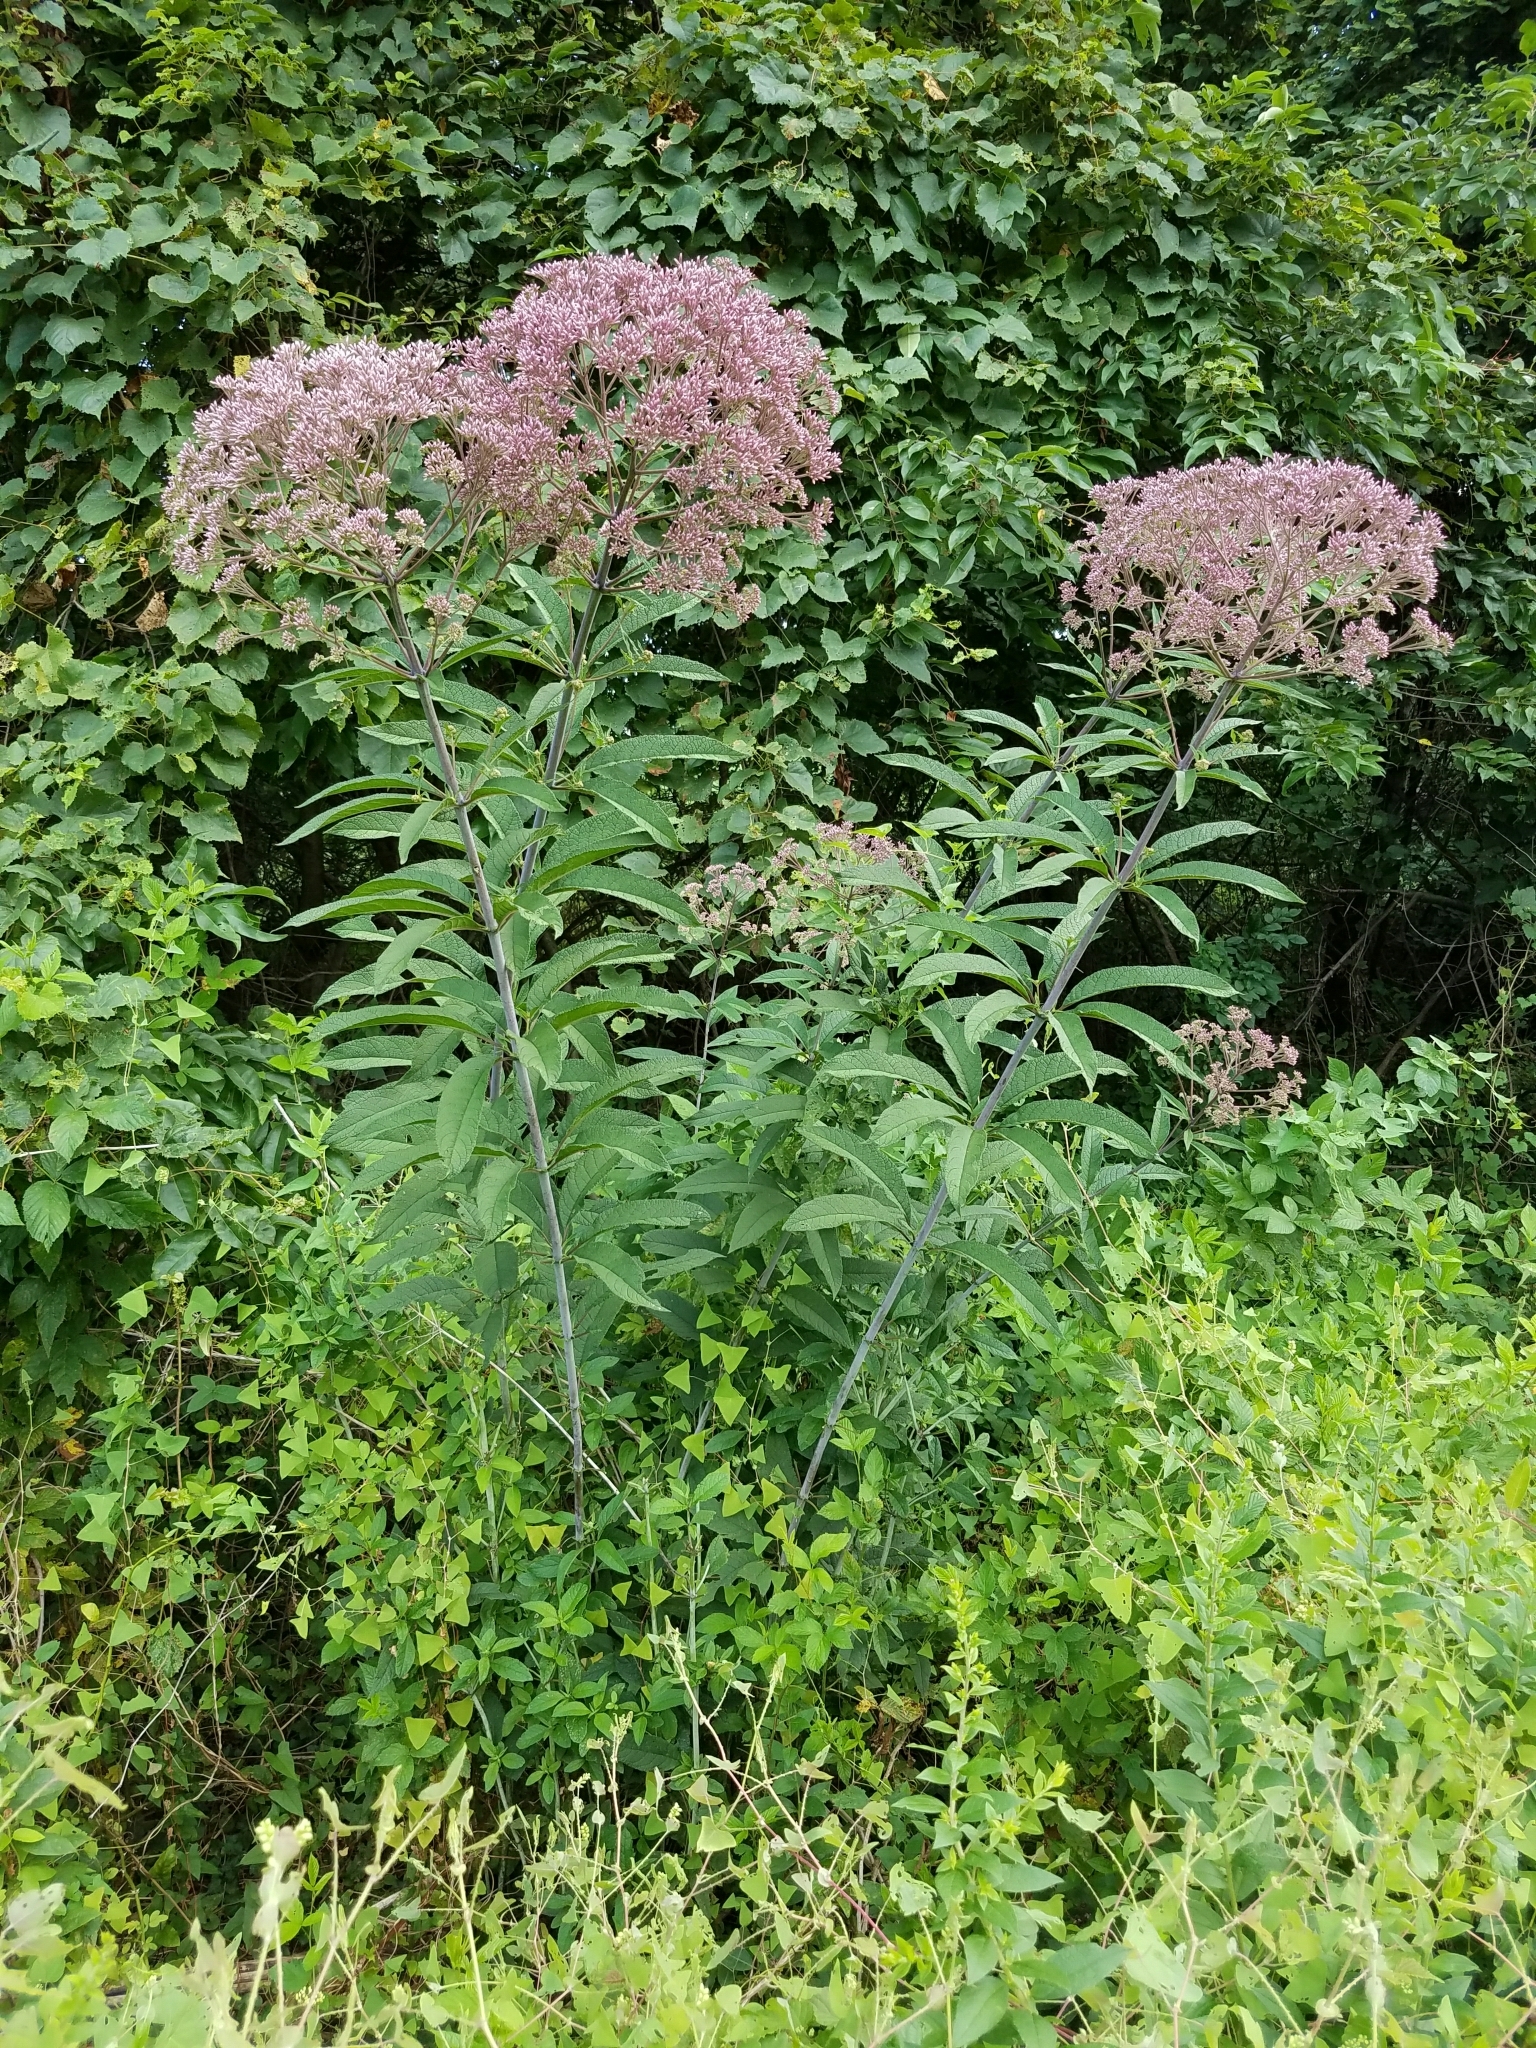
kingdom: Plantae
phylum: Tracheophyta
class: Magnoliopsida
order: Asterales
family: Asteraceae
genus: Eutrochium
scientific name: Eutrochium fistulosum
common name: Trumpetweed
